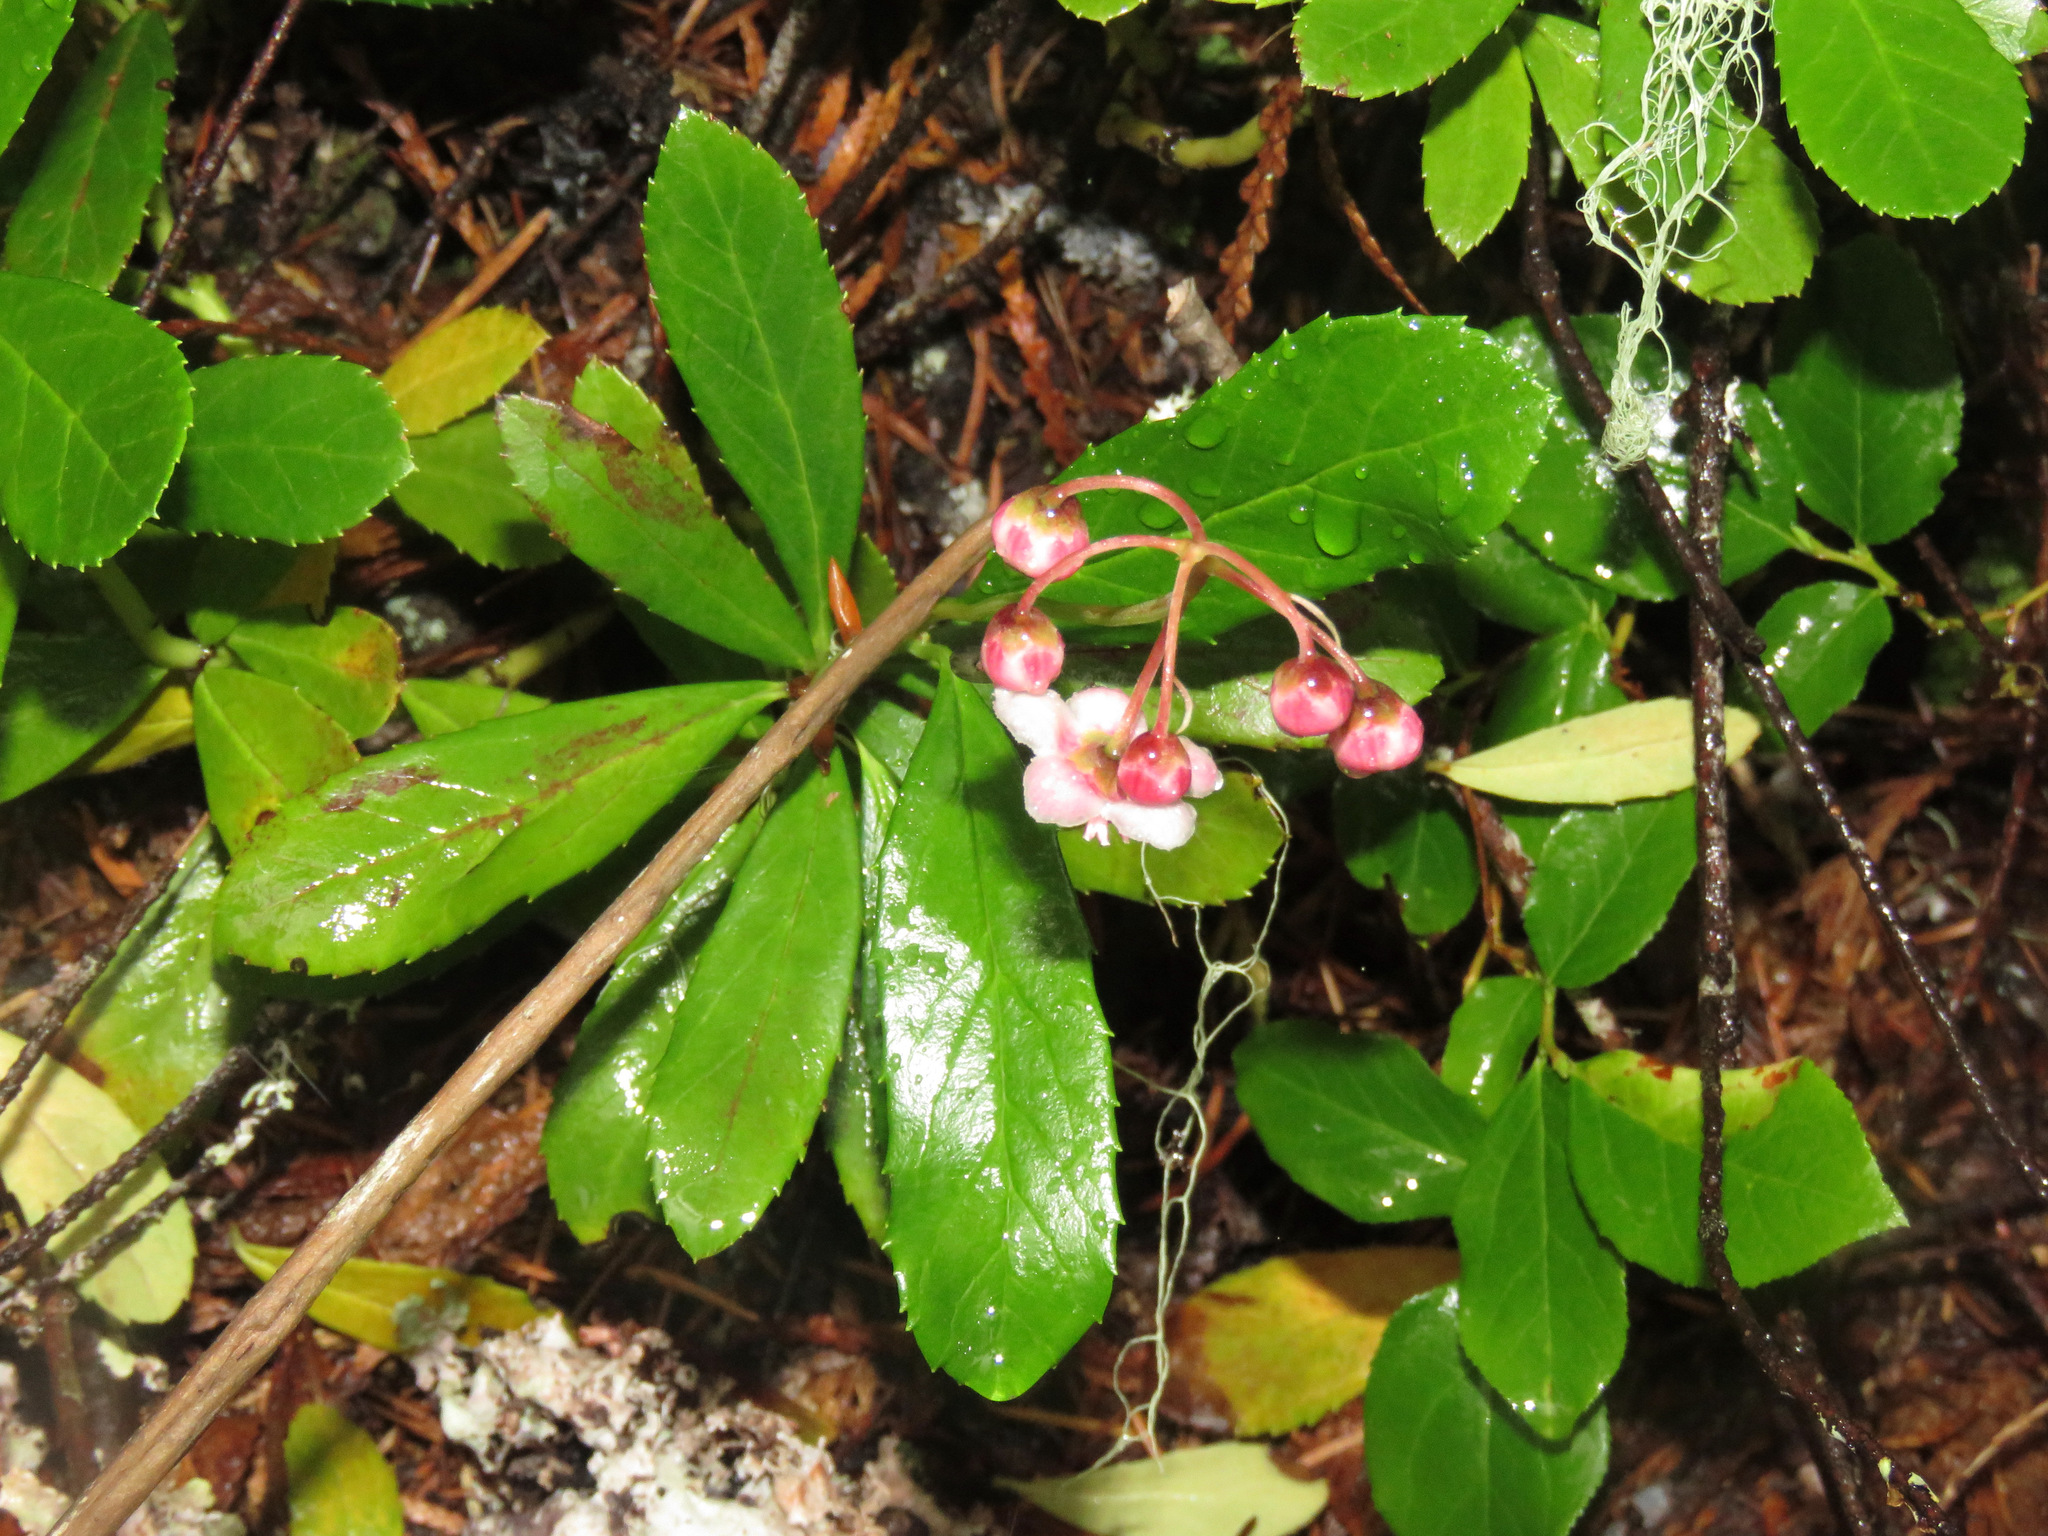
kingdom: Plantae
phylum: Tracheophyta
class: Magnoliopsida
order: Ericales
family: Ericaceae
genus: Chimaphila
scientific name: Chimaphila umbellata
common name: Pipsissewa
